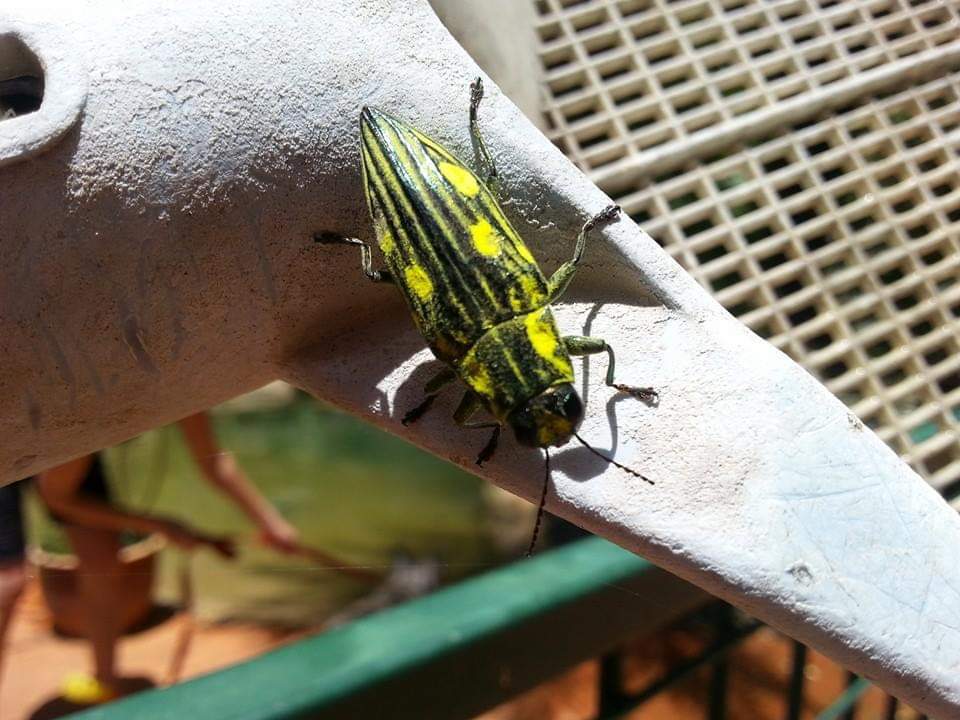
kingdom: Animalia
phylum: Arthropoda
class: Insecta
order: Coleoptera
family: Buprestidae
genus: Chalcophorotaenia
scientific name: Chalcophorotaenia cuprascens
